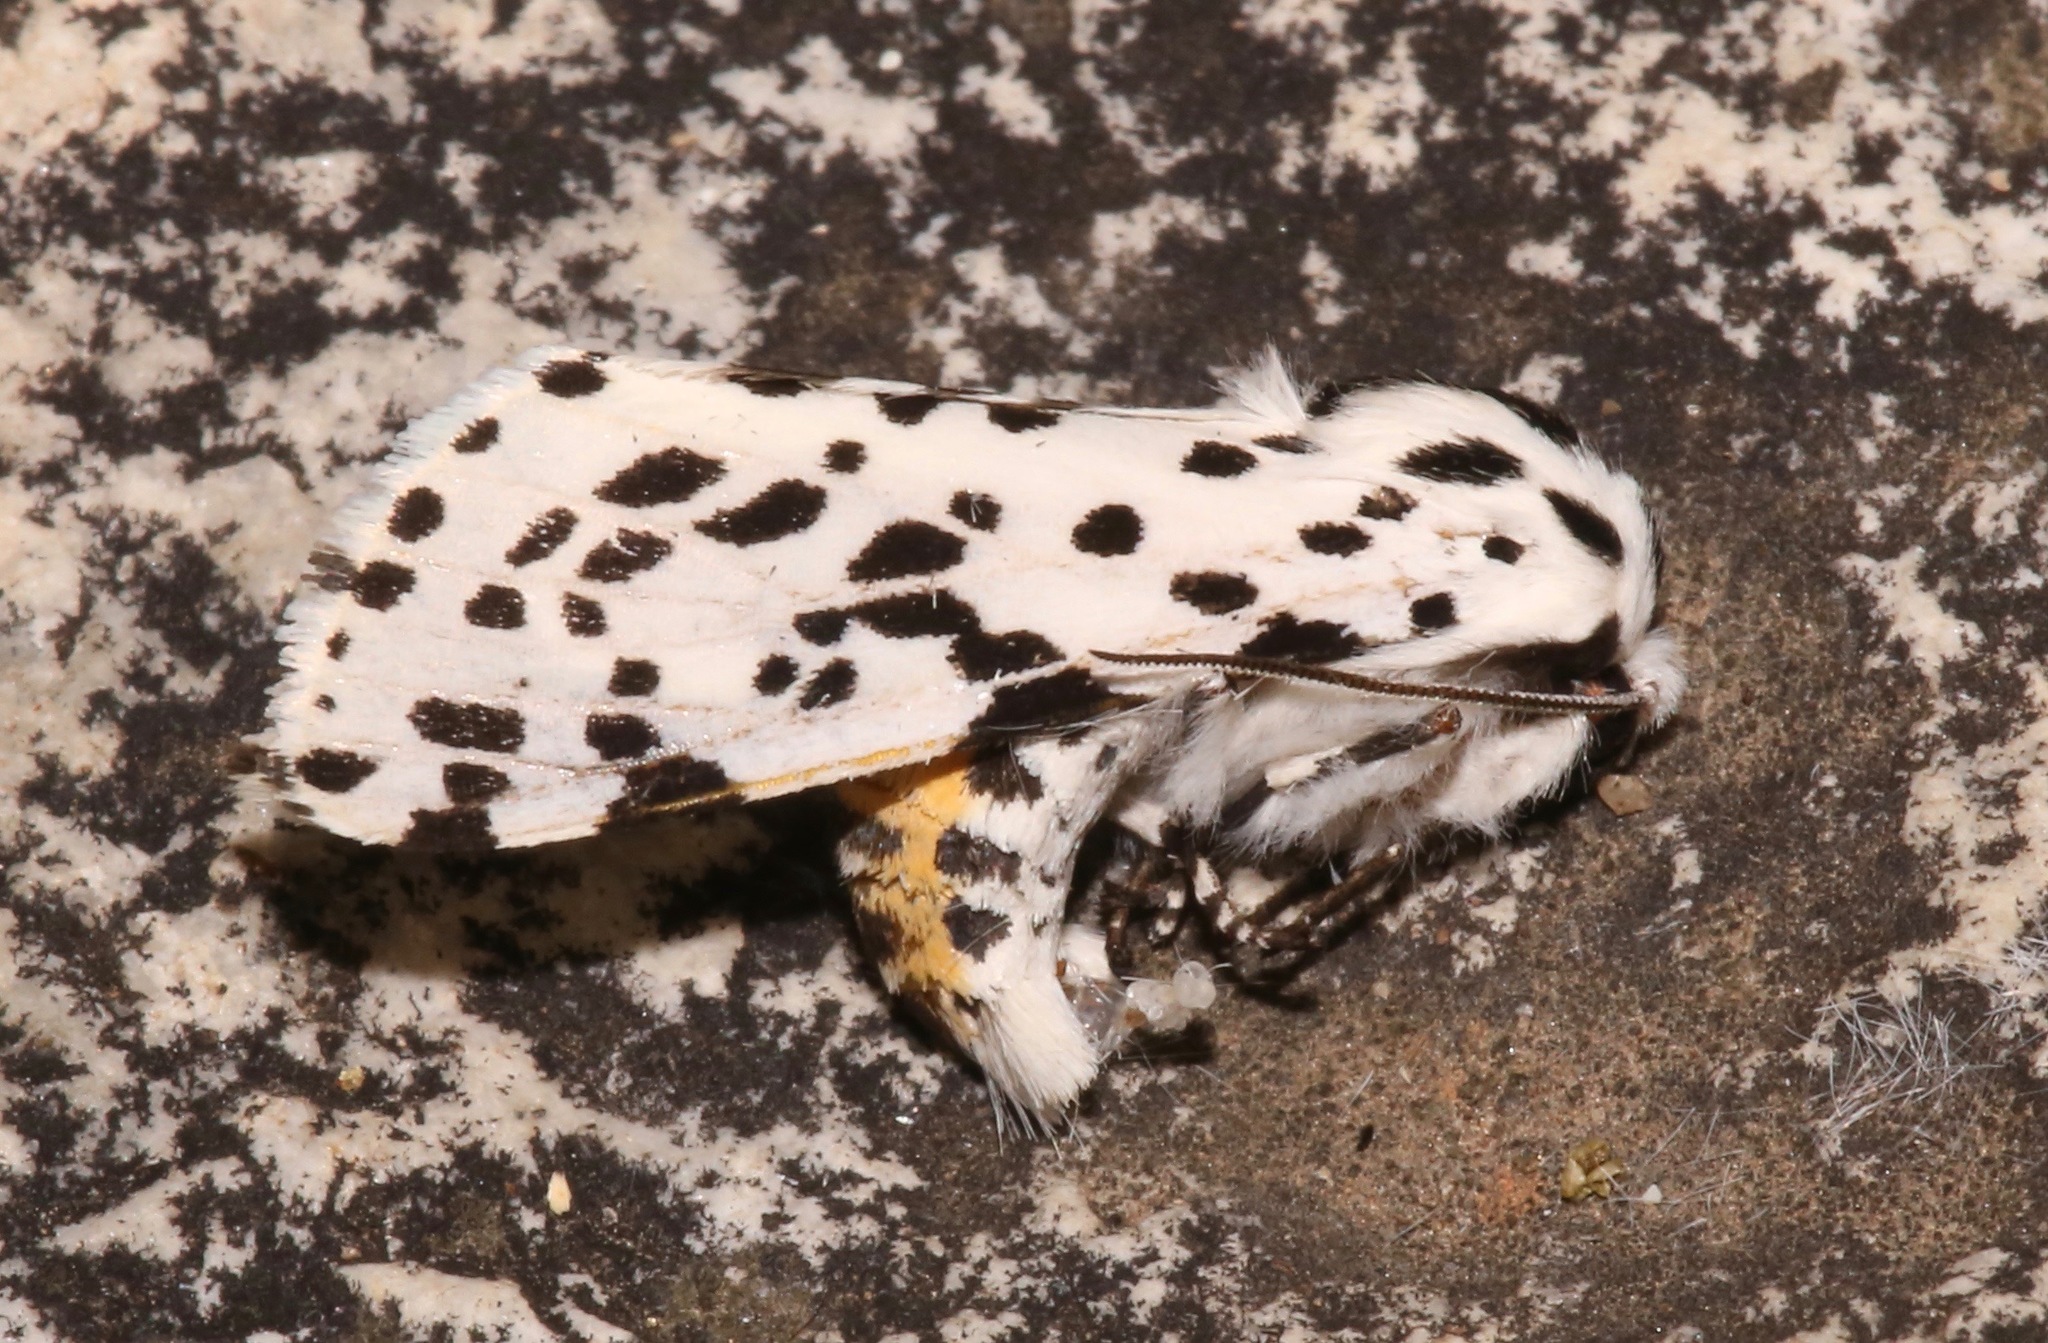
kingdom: Animalia
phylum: Arthropoda
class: Insecta
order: Lepidoptera
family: Erebidae
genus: Hypercompe
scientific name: Hypercompe permaculata
